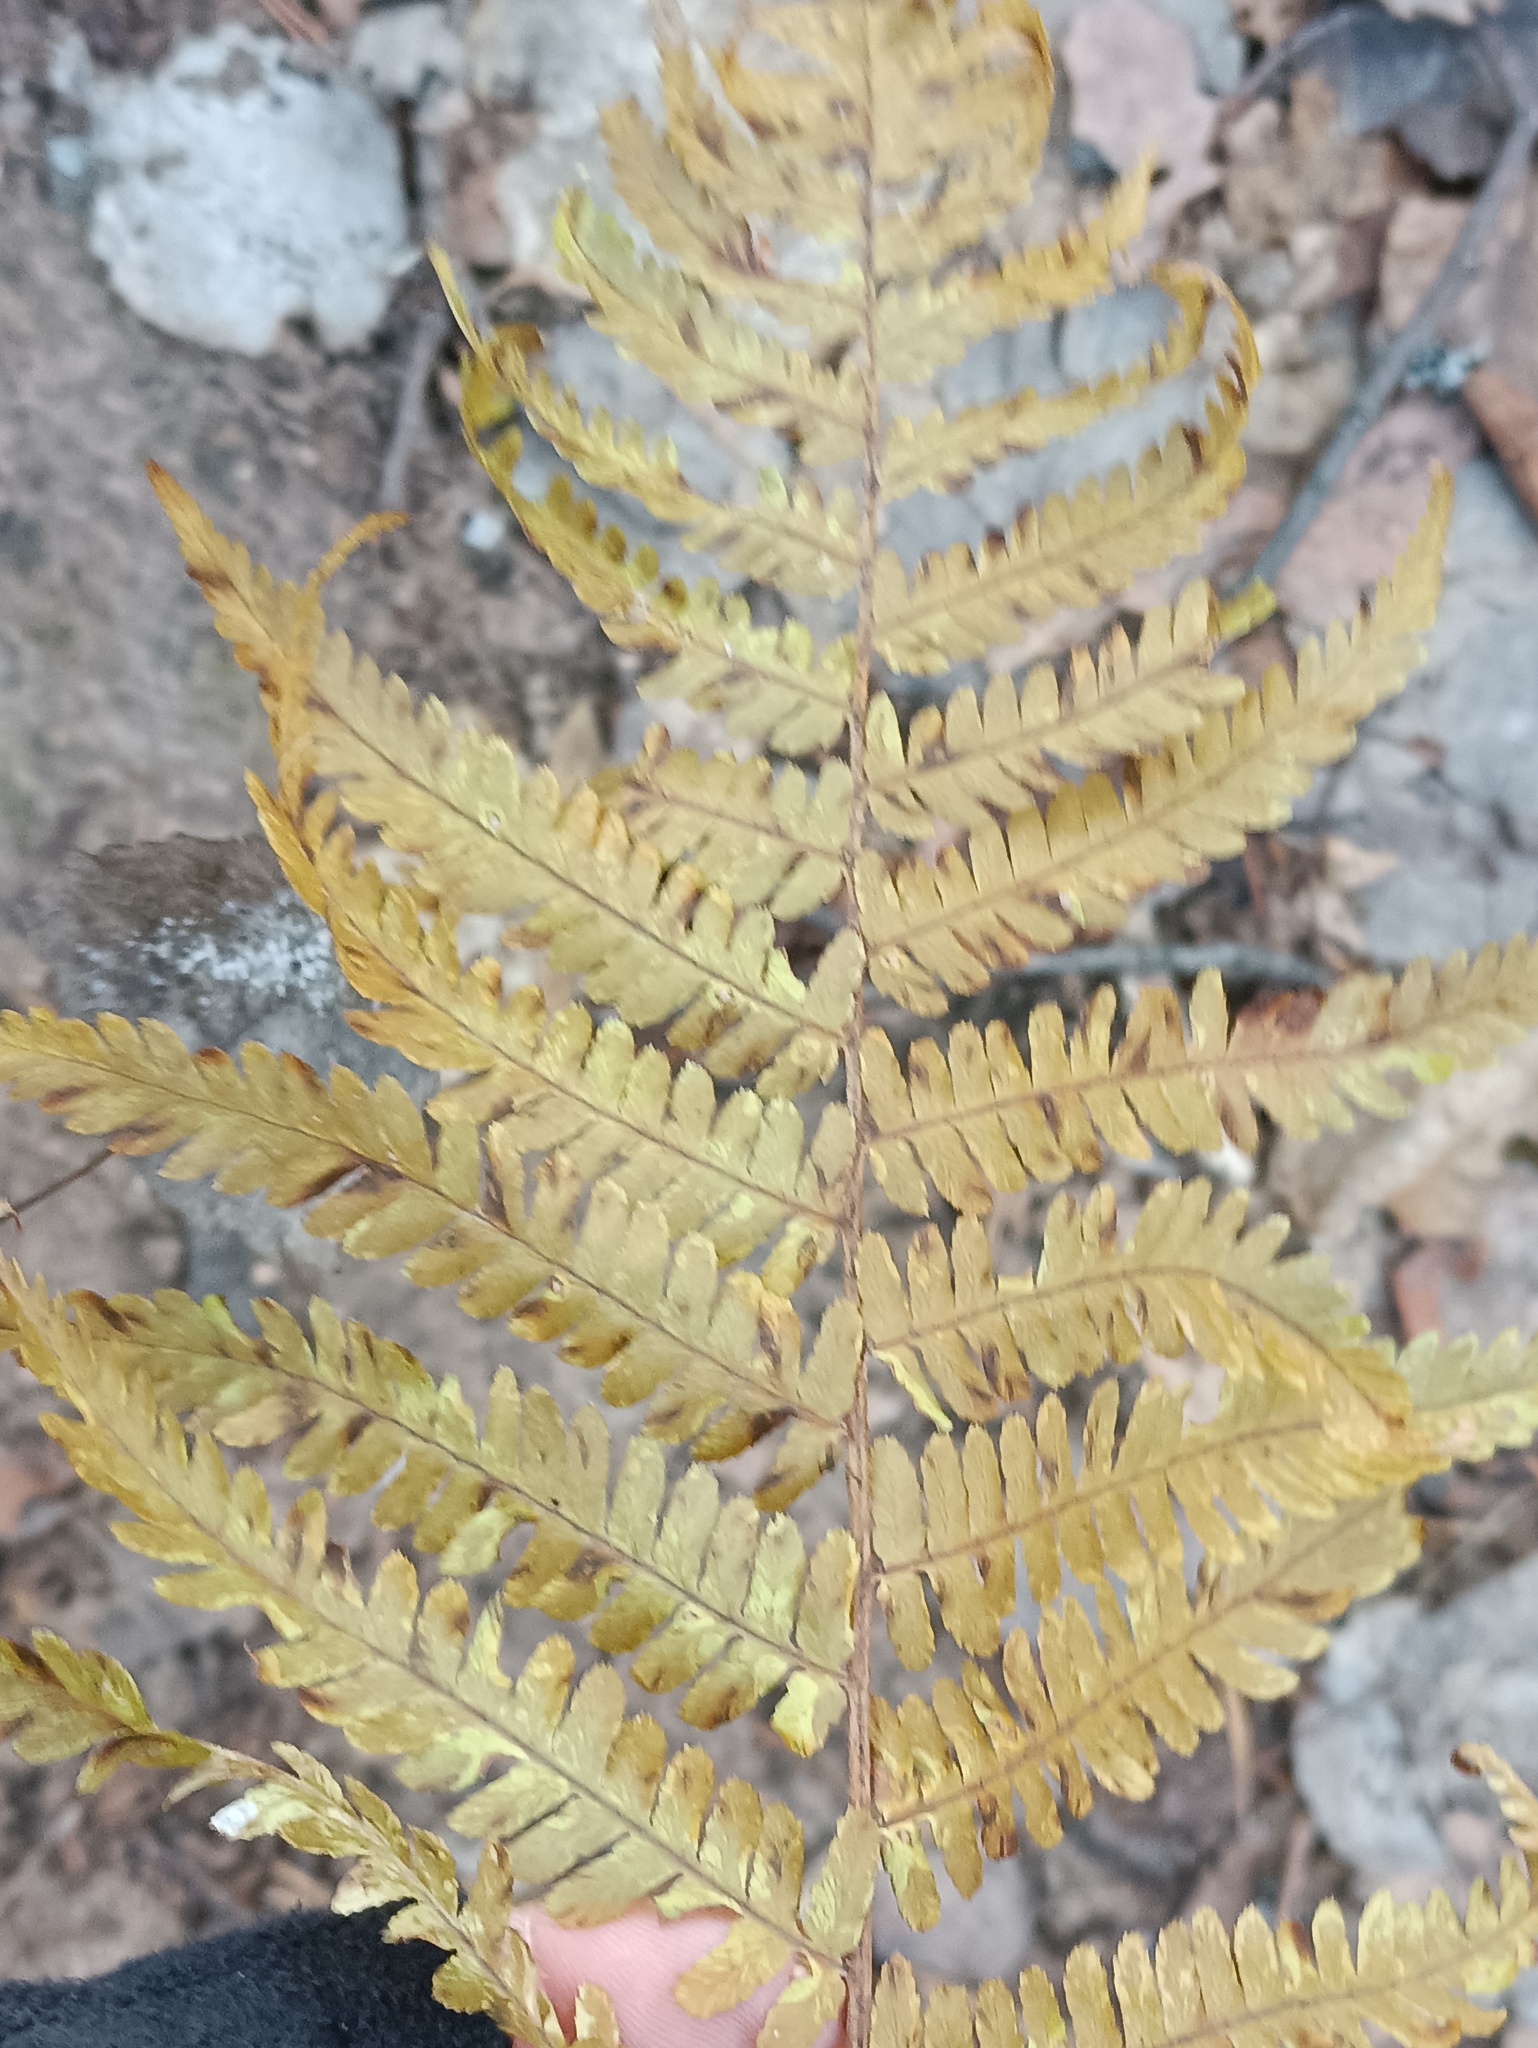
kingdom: Plantae
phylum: Tracheophyta
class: Polypodiopsida
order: Polypodiales
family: Dryopteridaceae
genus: Dryopteris
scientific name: Dryopteris filix-mas
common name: Male fern
